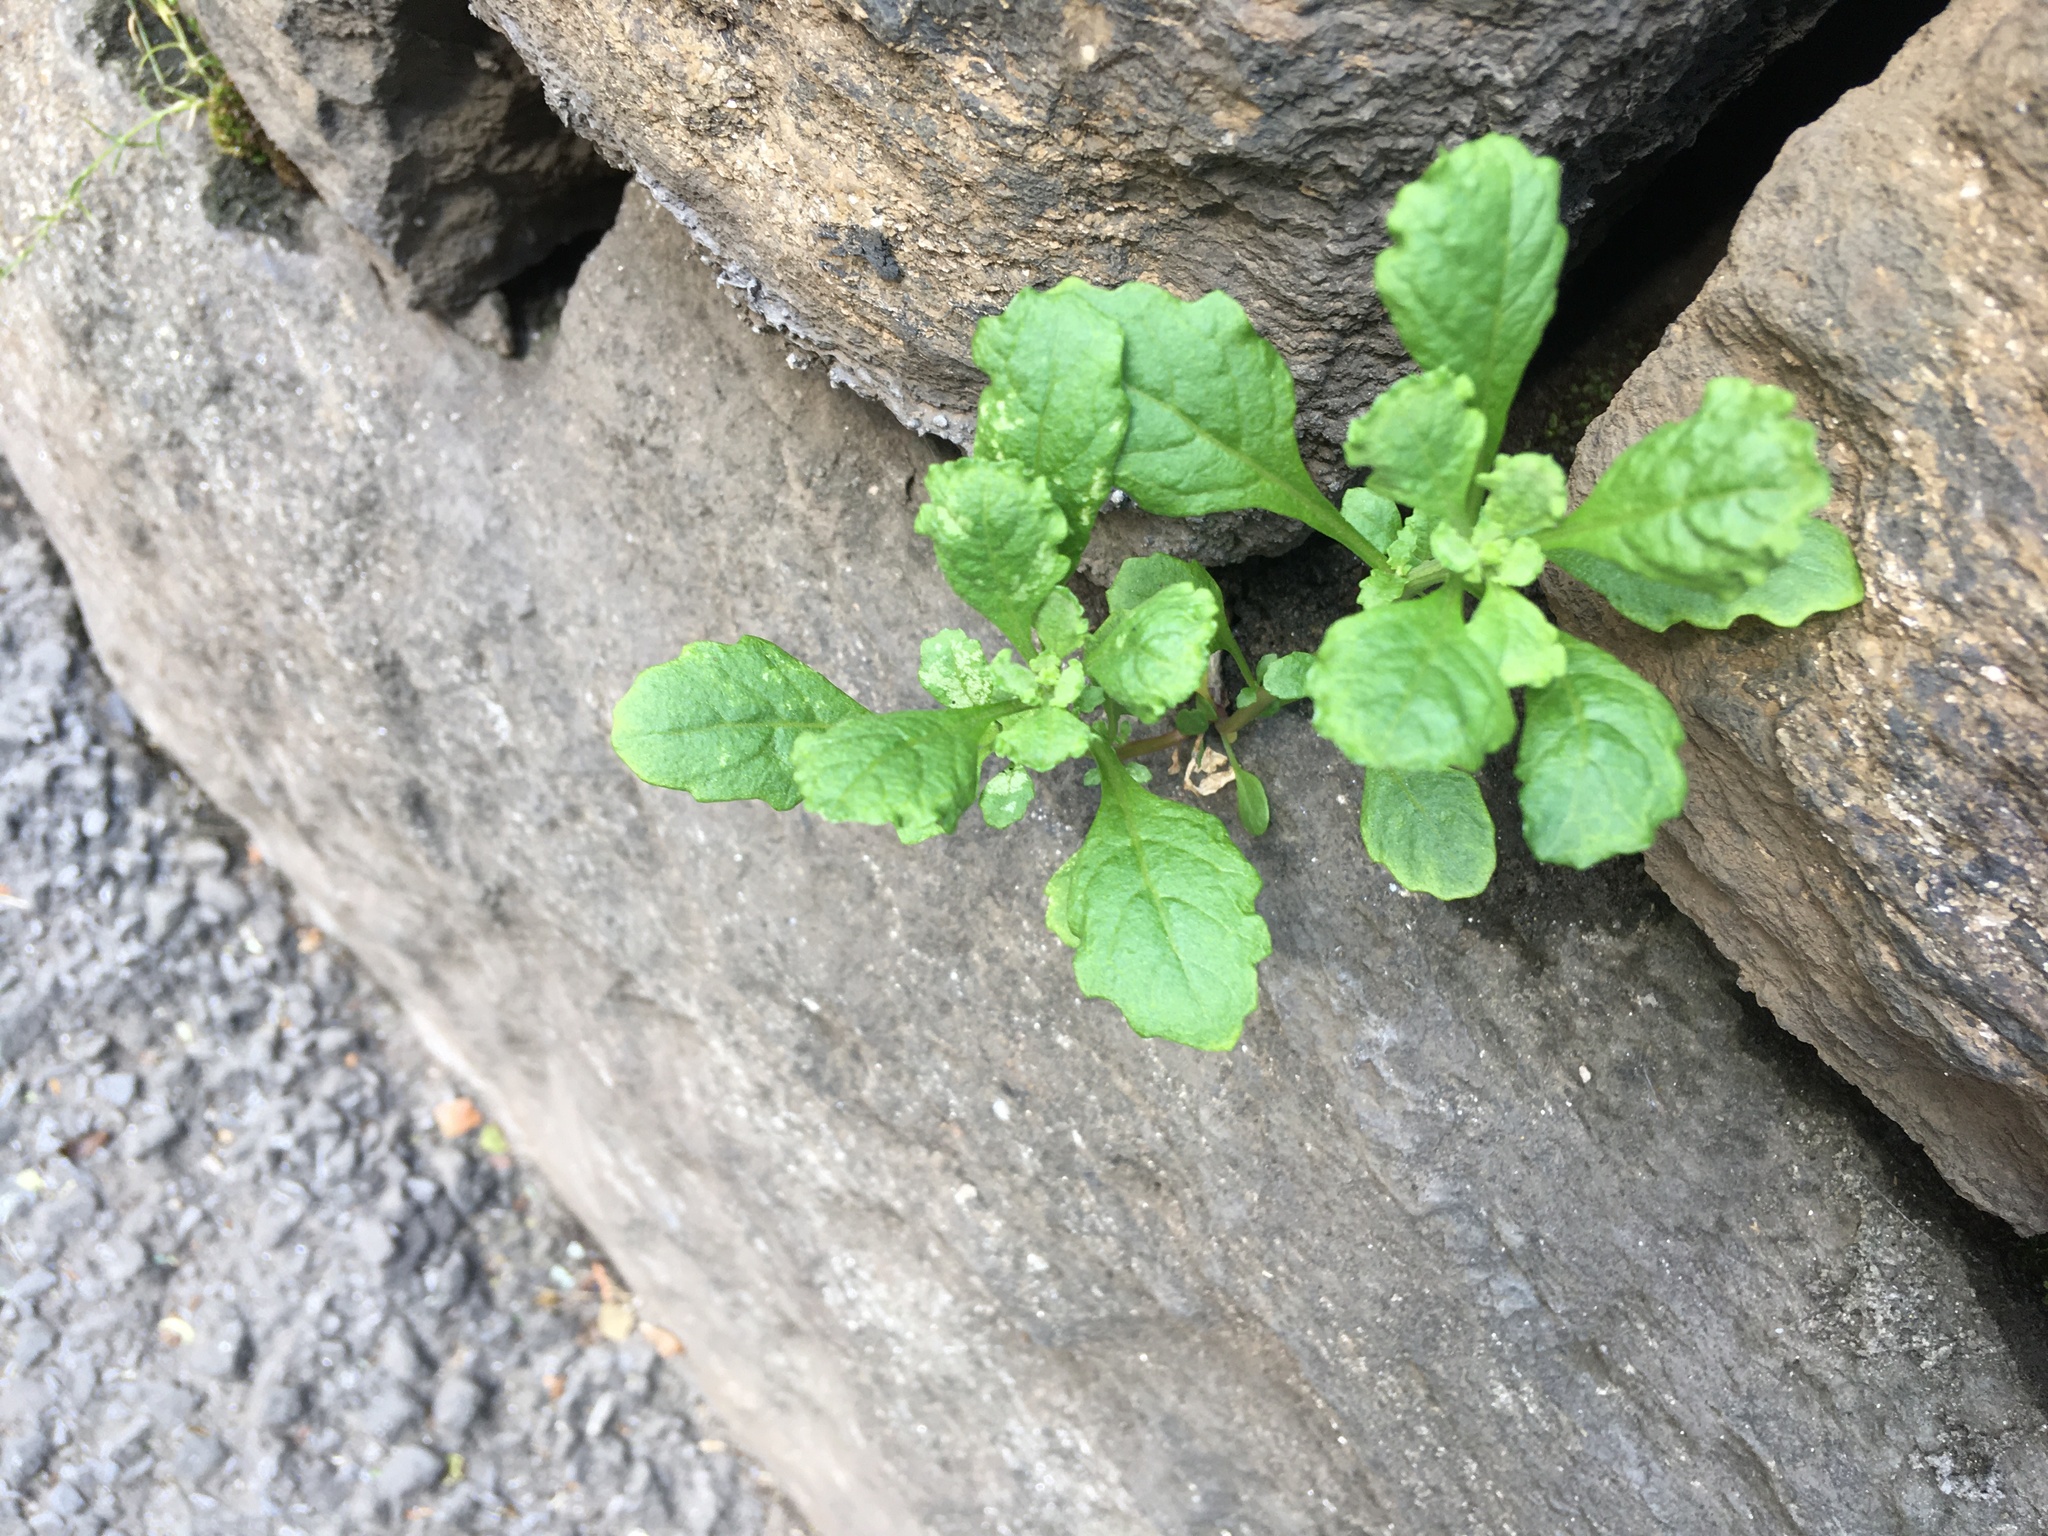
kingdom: Plantae
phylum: Tracheophyta
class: Magnoliopsida
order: Caryophyllales
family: Amaranthaceae
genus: Dysphania
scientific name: Dysphania ambrosioides
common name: Wormseed
